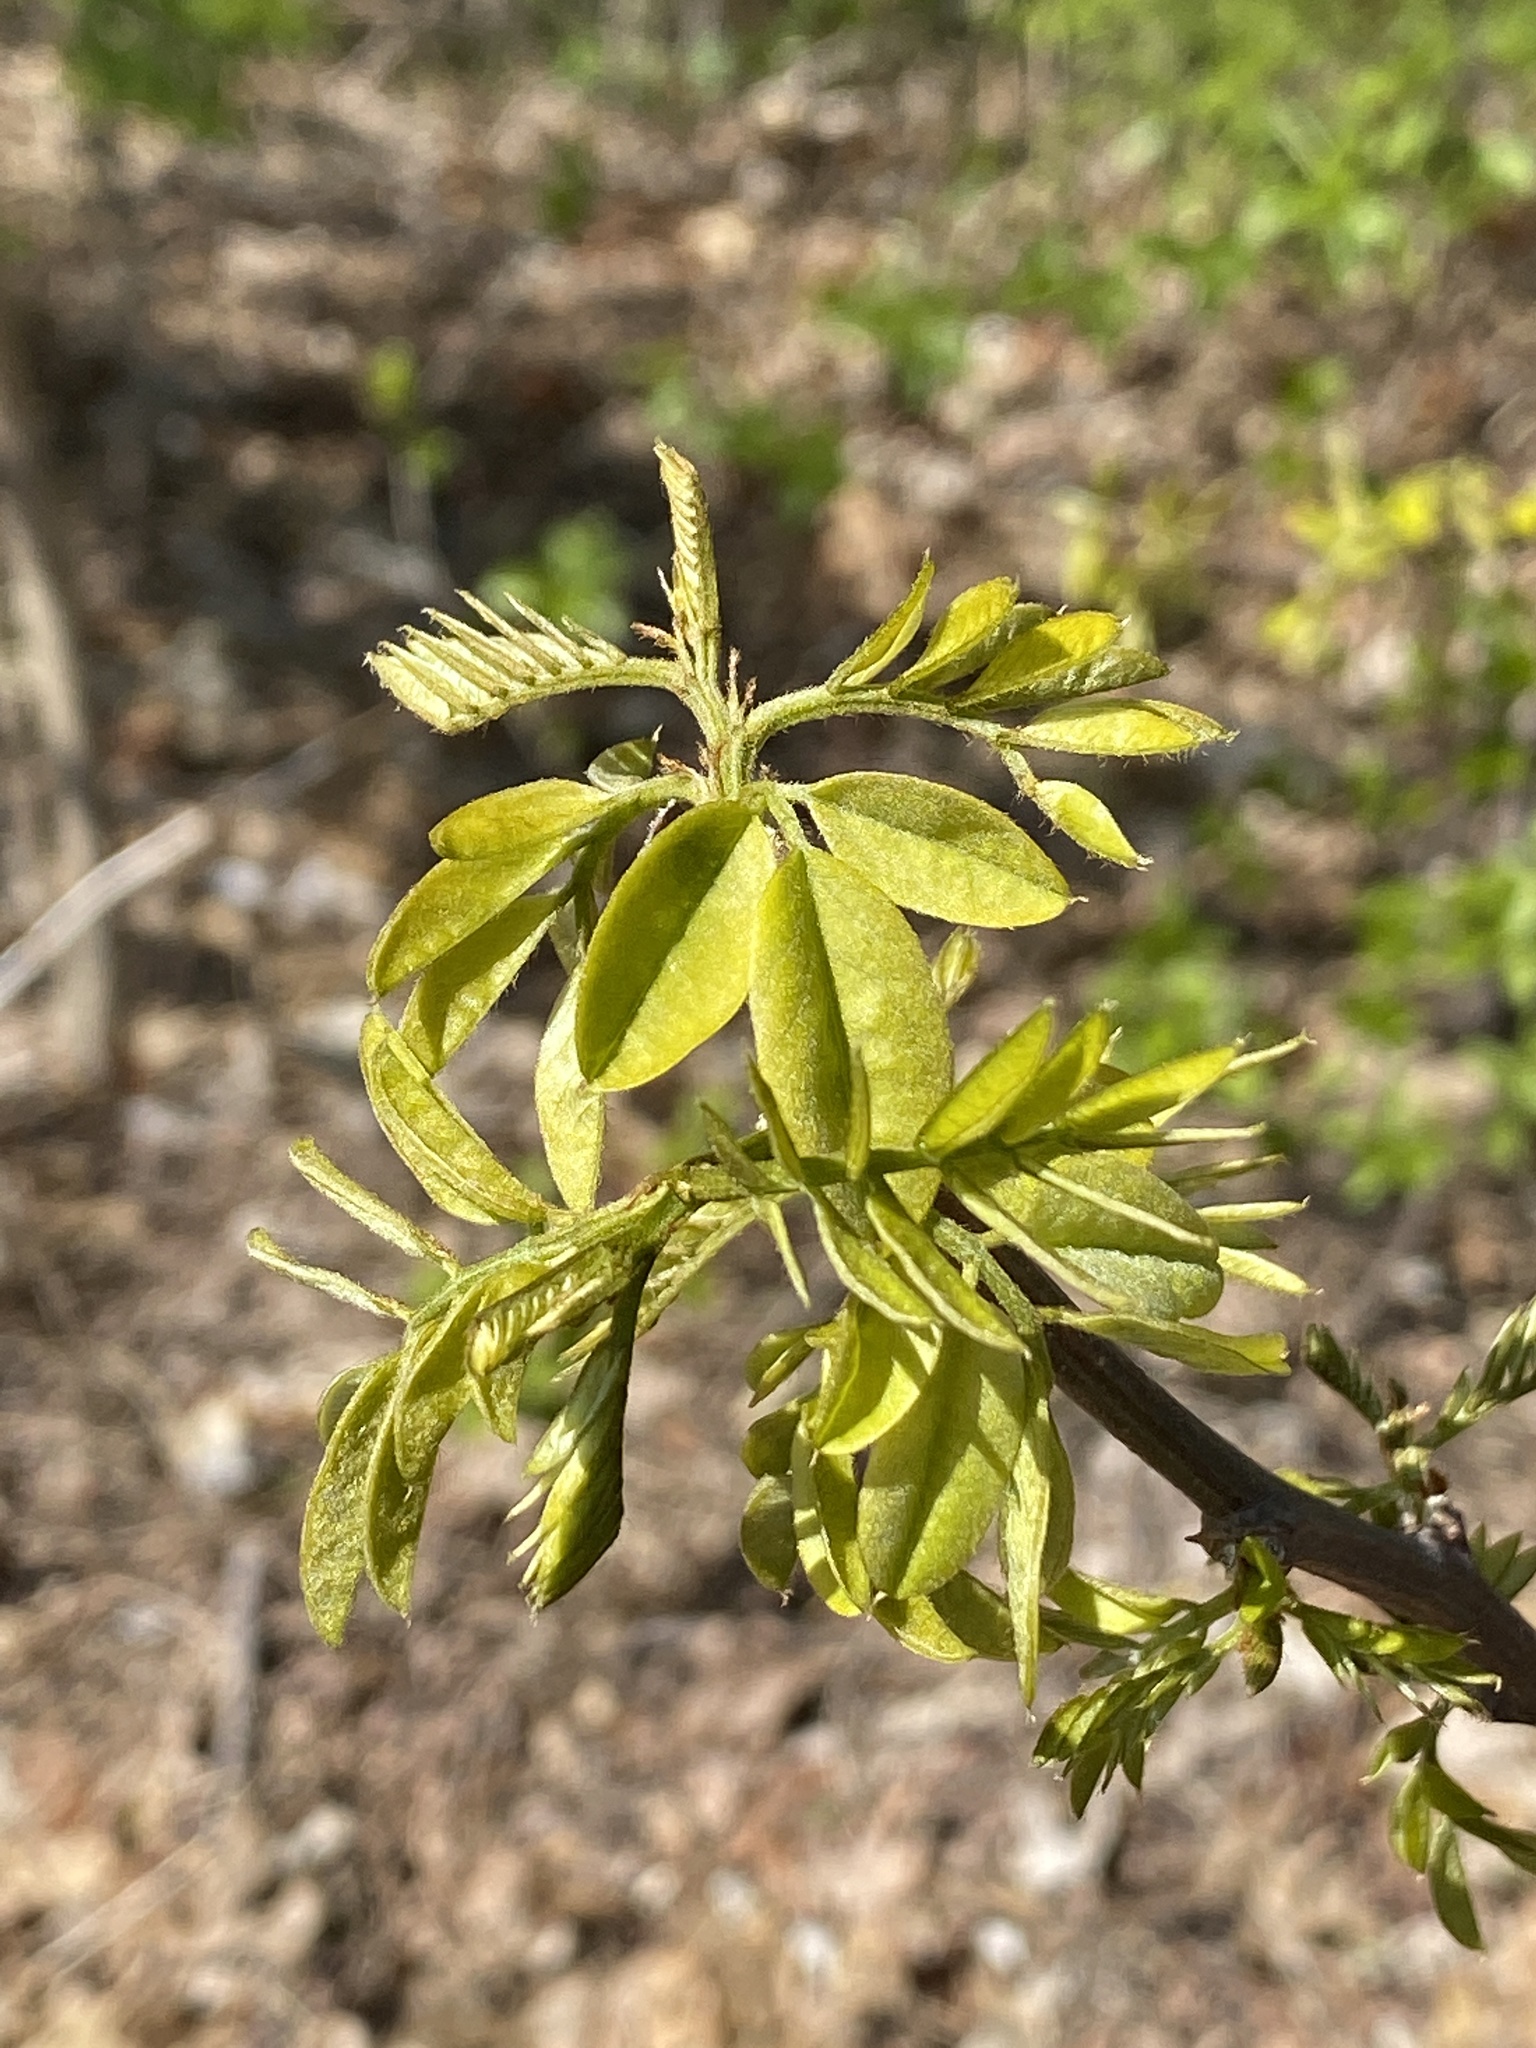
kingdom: Plantae
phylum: Tracheophyta
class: Magnoliopsida
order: Fabales
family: Fabaceae
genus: Robinia
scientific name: Robinia pseudoacacia
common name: Black locust
